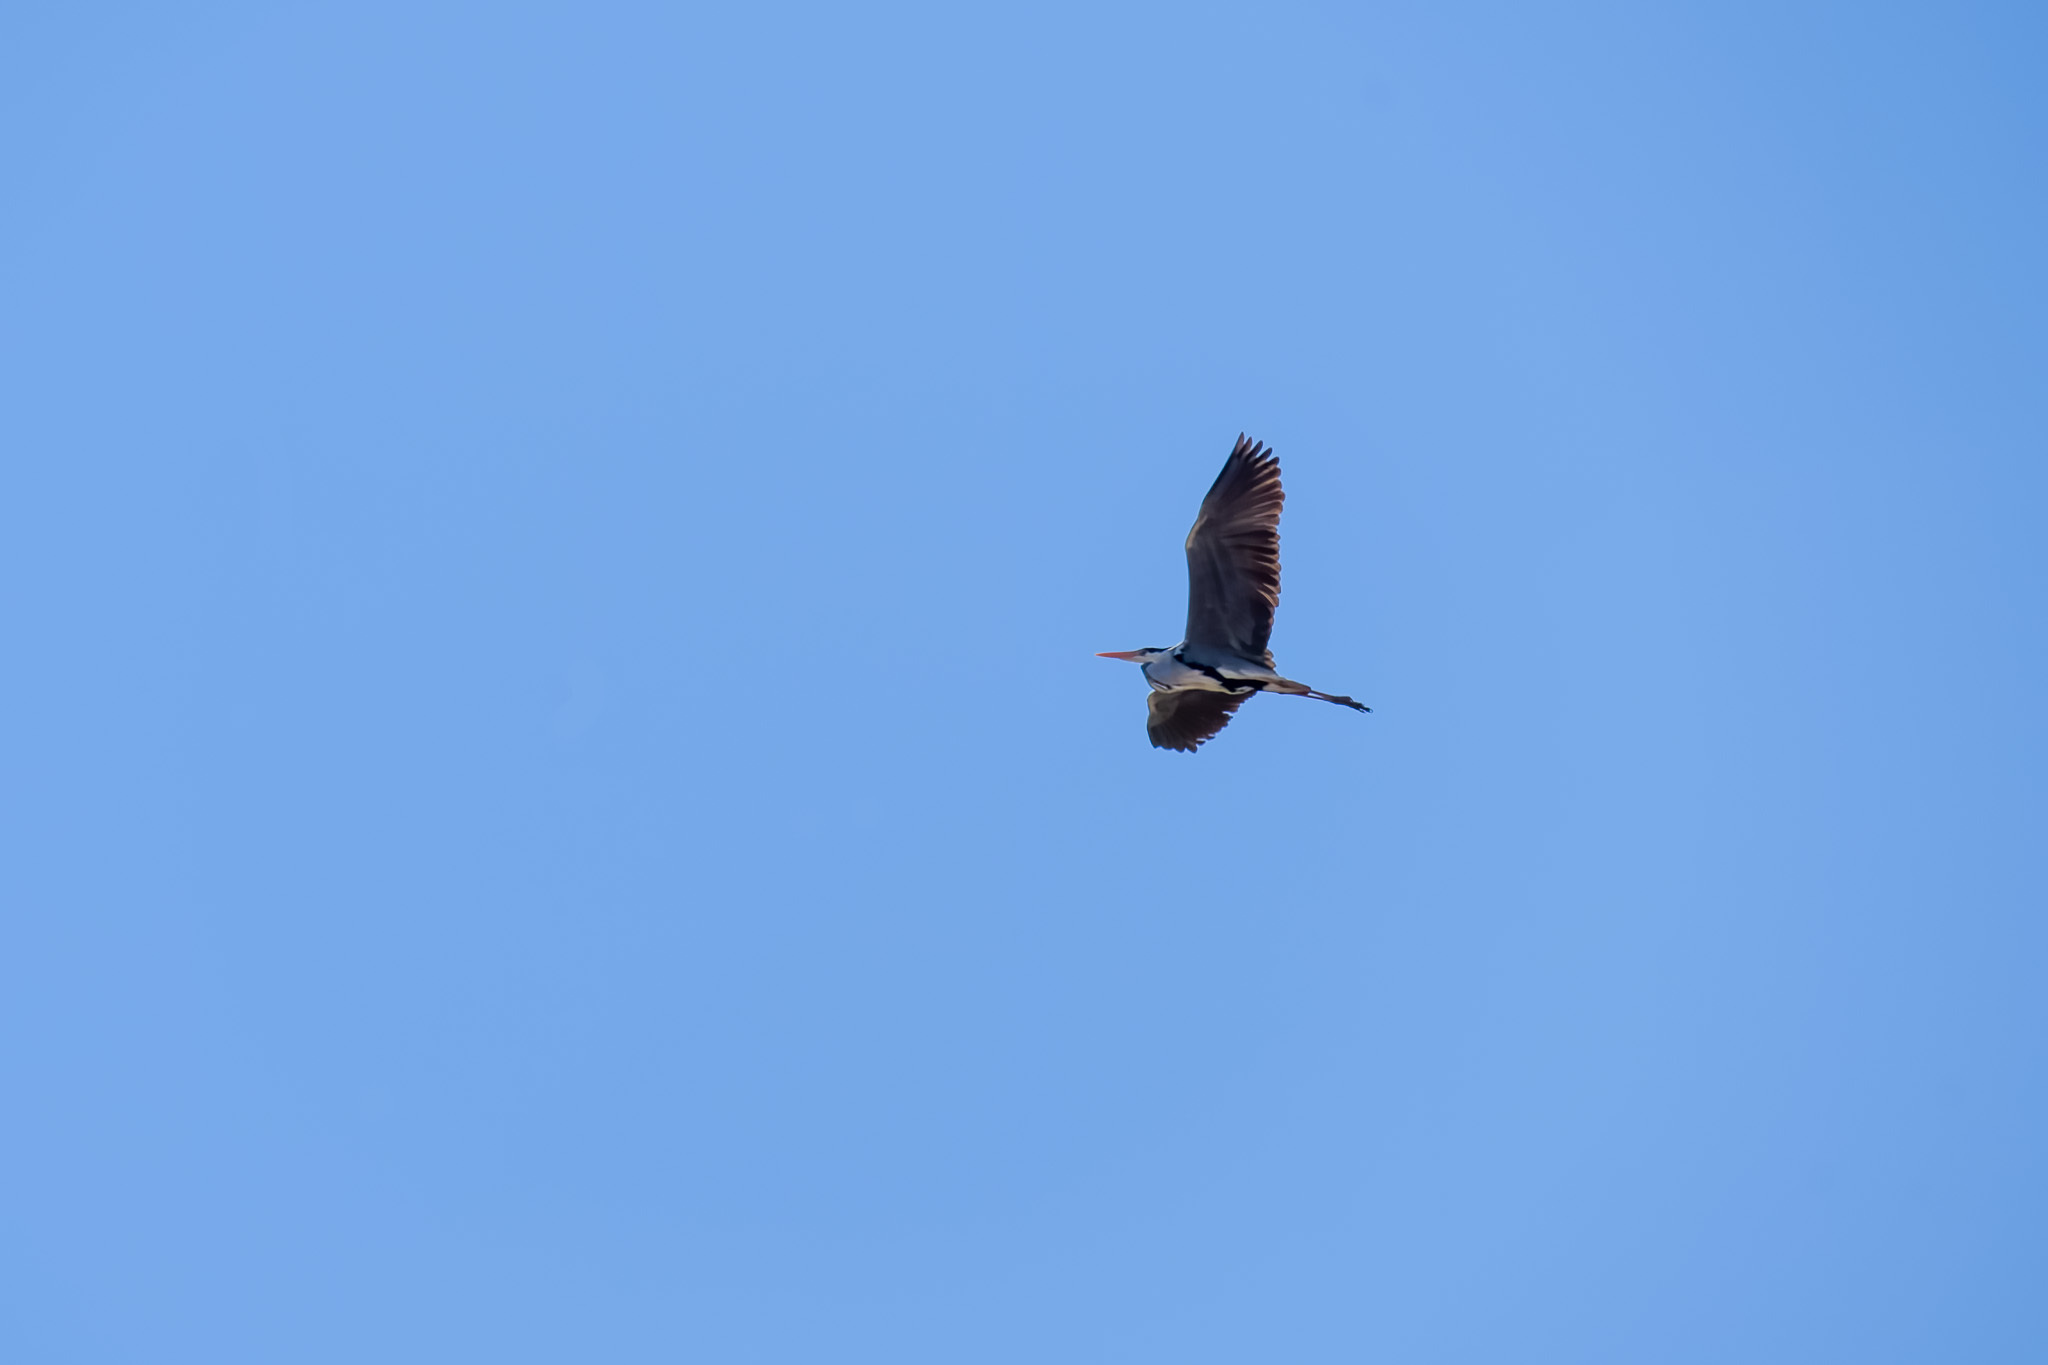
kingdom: Animalia
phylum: Chordata
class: Aves
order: Pelecaniformes
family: Ardeidae
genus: Ardea
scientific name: Ardea cinerea
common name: Grey heron
